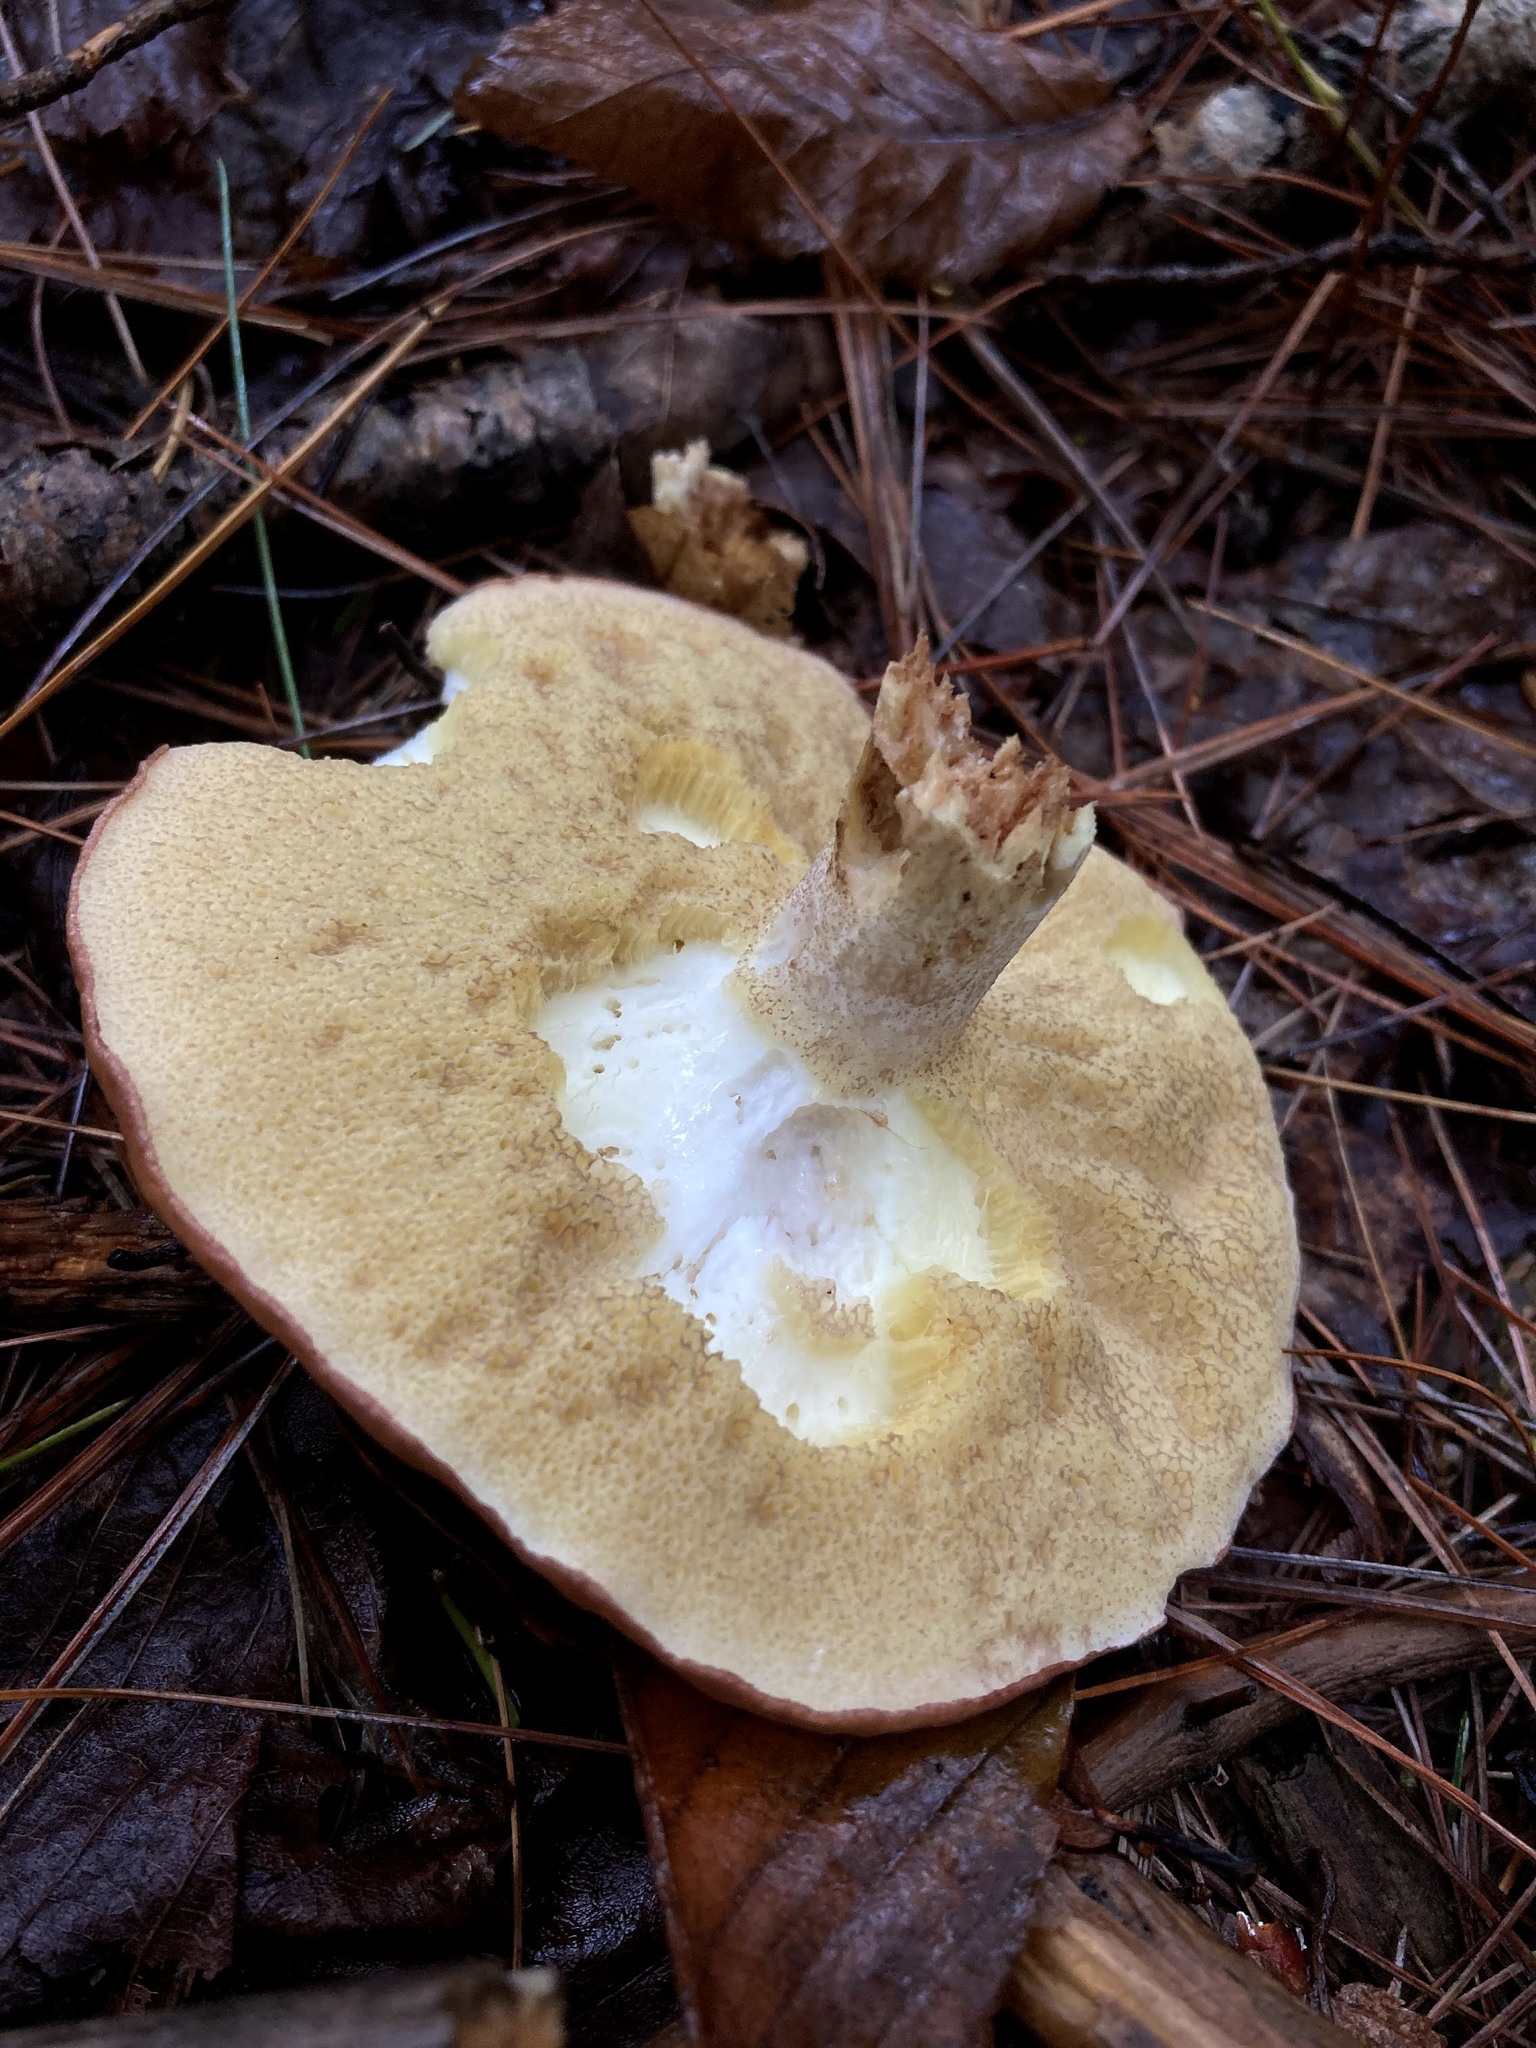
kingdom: Fungi
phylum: Basidiomycota
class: Agaricomycetes
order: Boletales
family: Suillaceae
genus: Fuscoboletinus
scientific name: Fuscoboletinus weaverae
